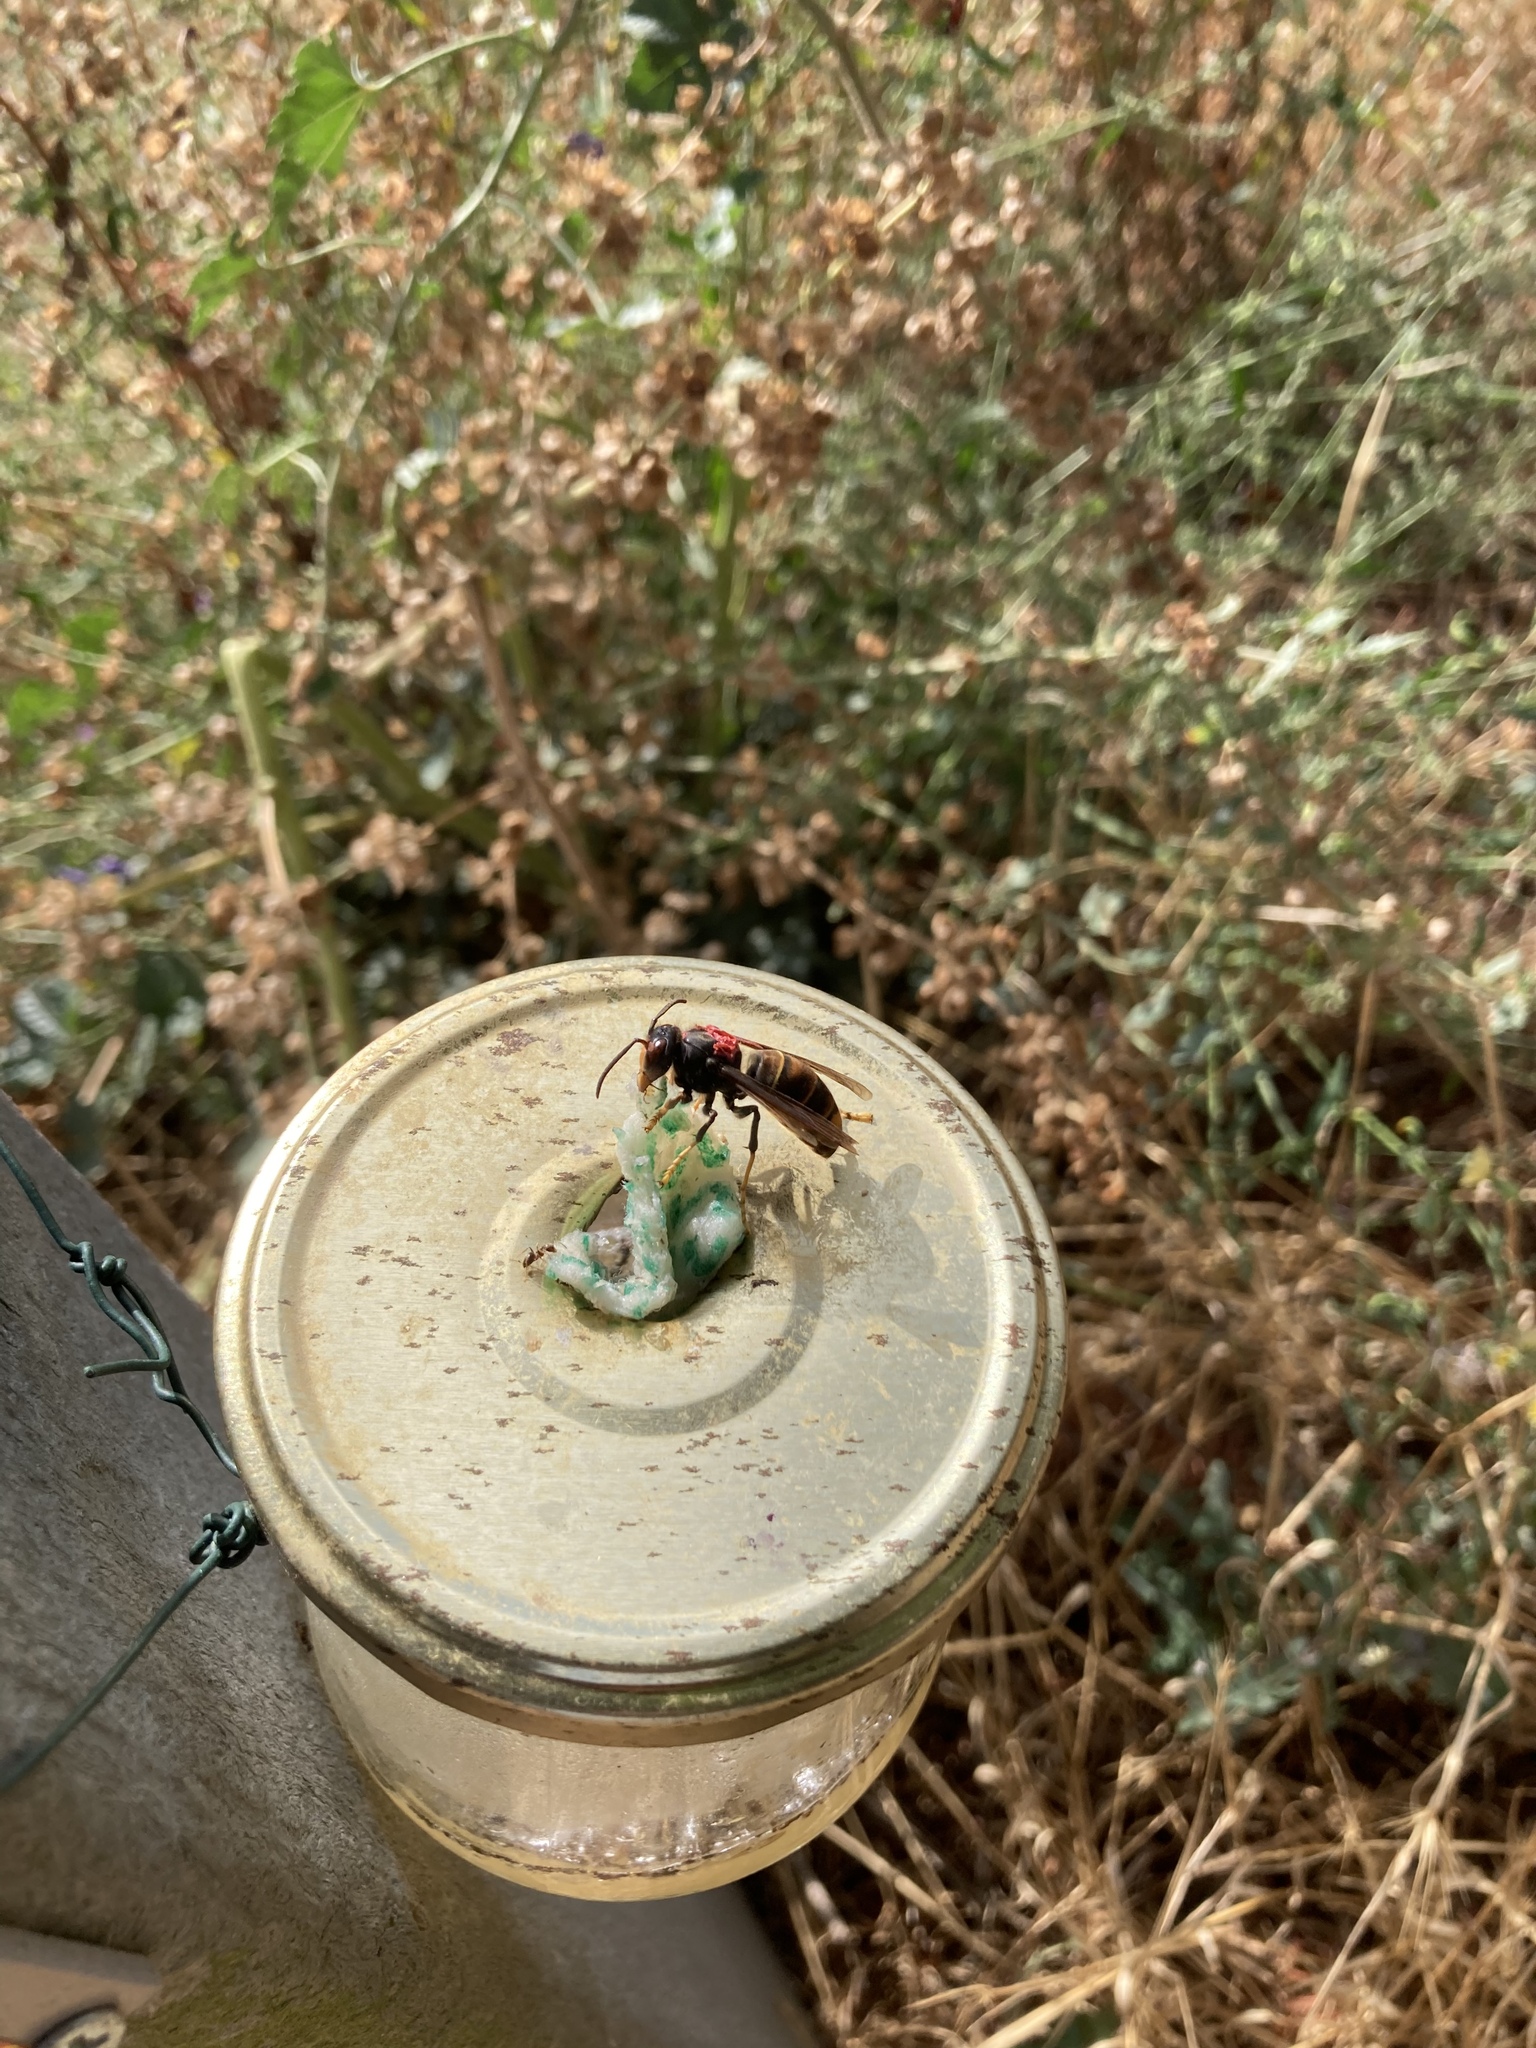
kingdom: Animalia
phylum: Arthropoda
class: Insecta
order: Hymenoptera
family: Vespidae
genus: Vespa
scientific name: Vespa velutina
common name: Asian hornet
